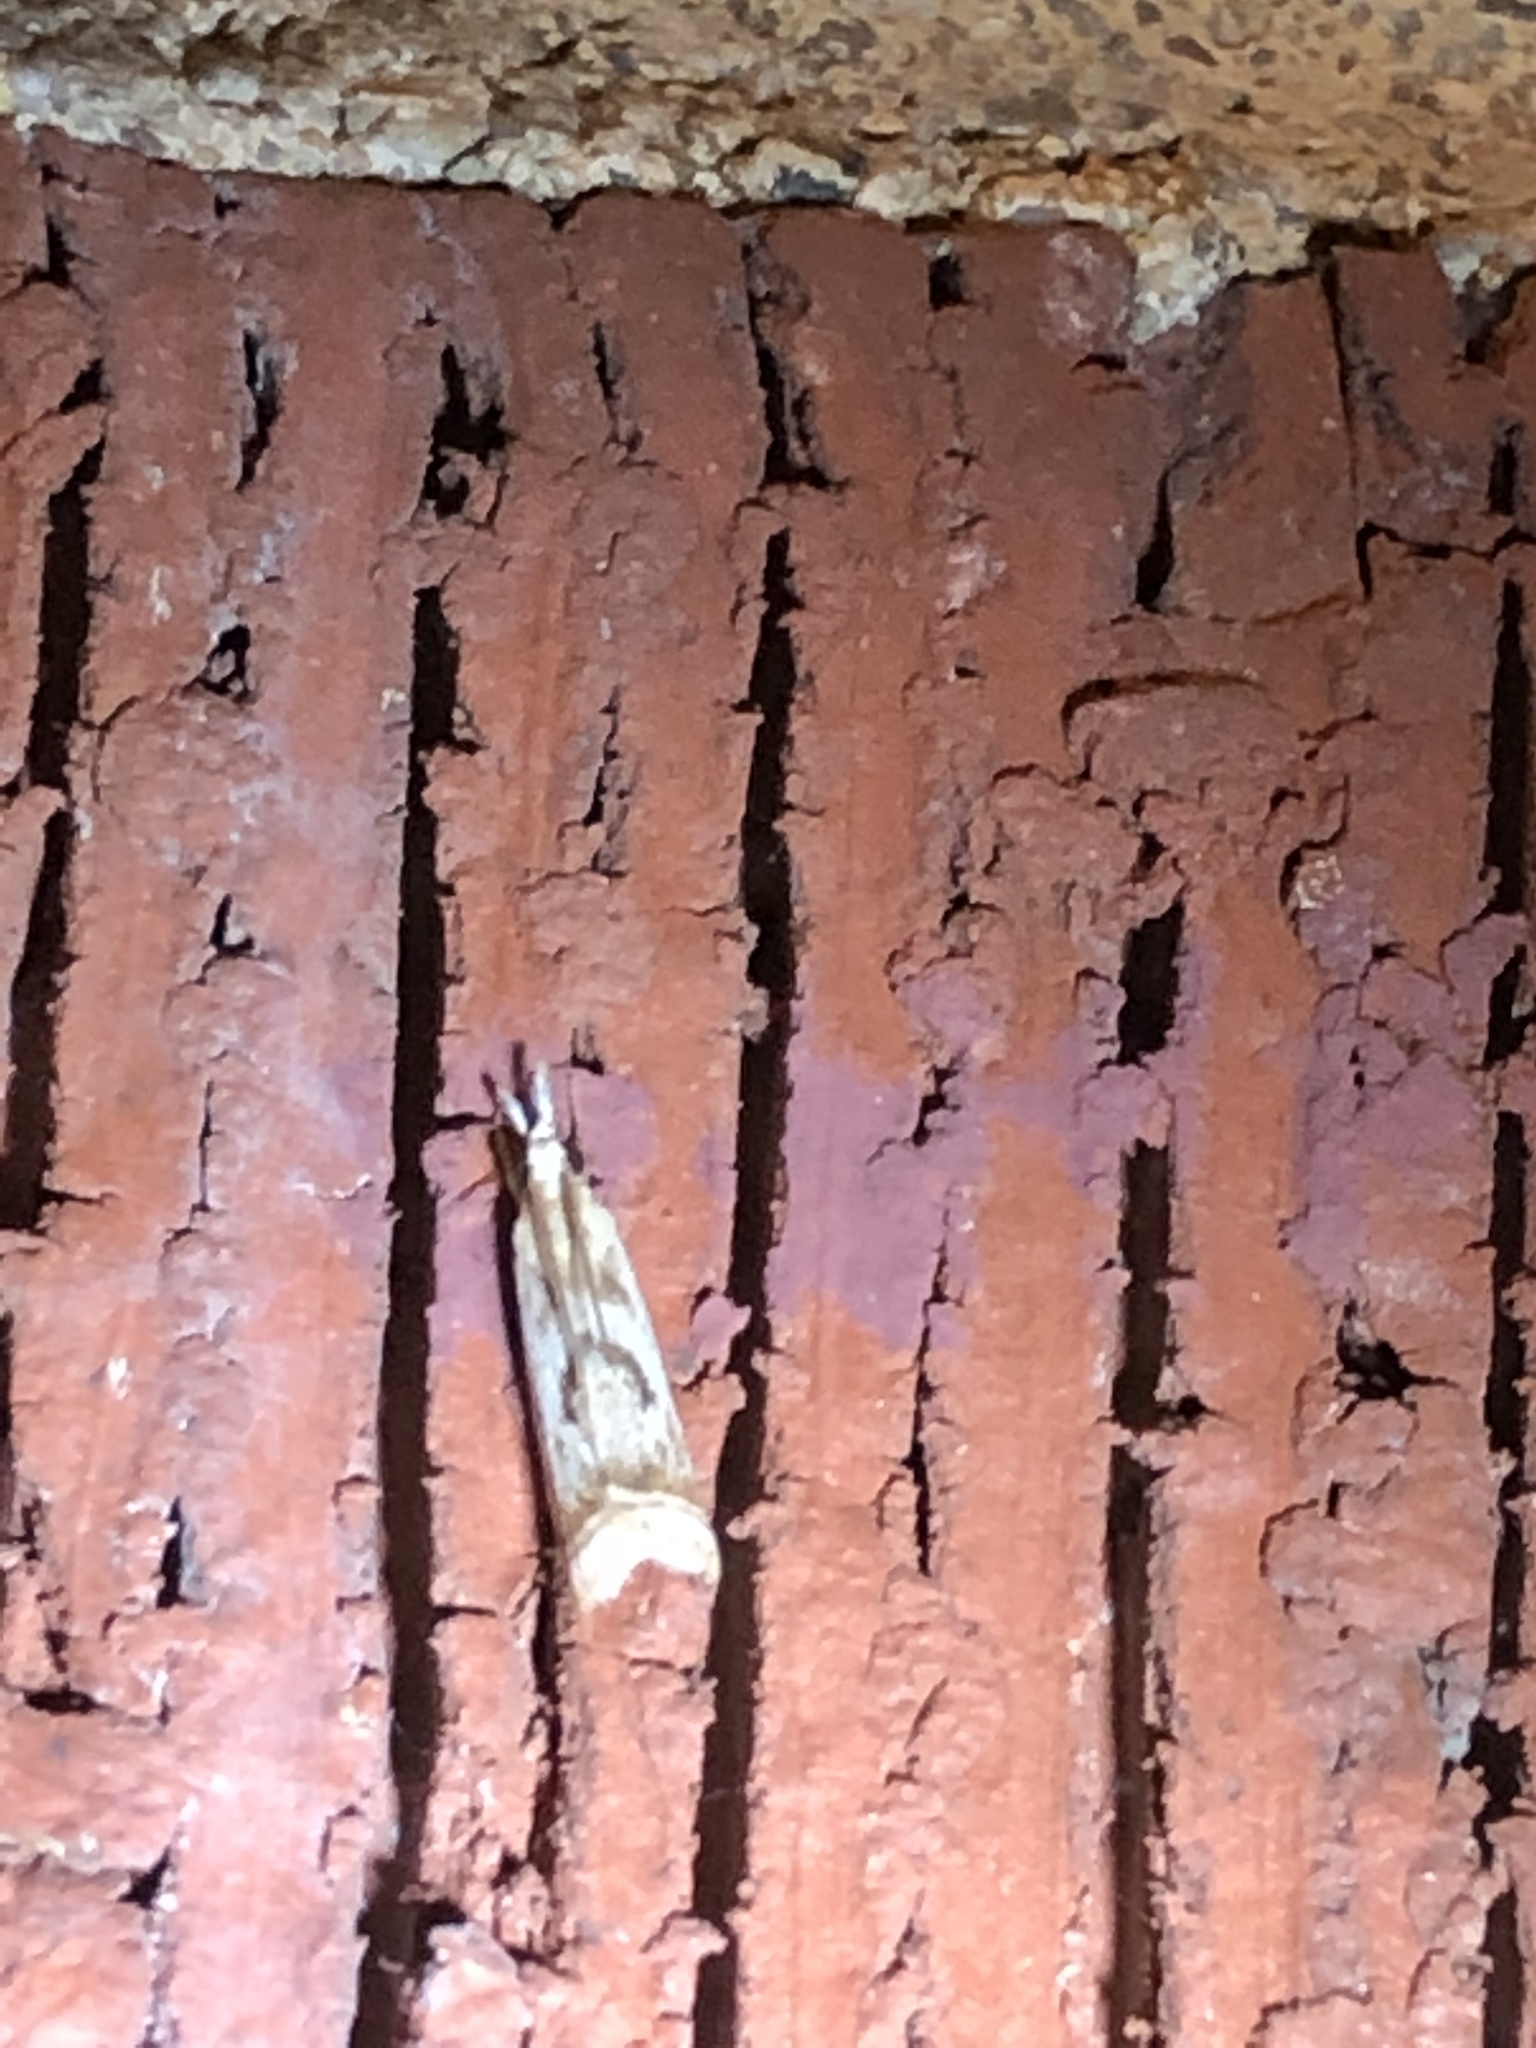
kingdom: Animalia
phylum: Arthropoda
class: Insecta
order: Lepidoptera
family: Crambidae
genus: Microcrambus
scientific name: Microcrambus elegans
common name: Elegant grass-veneer
